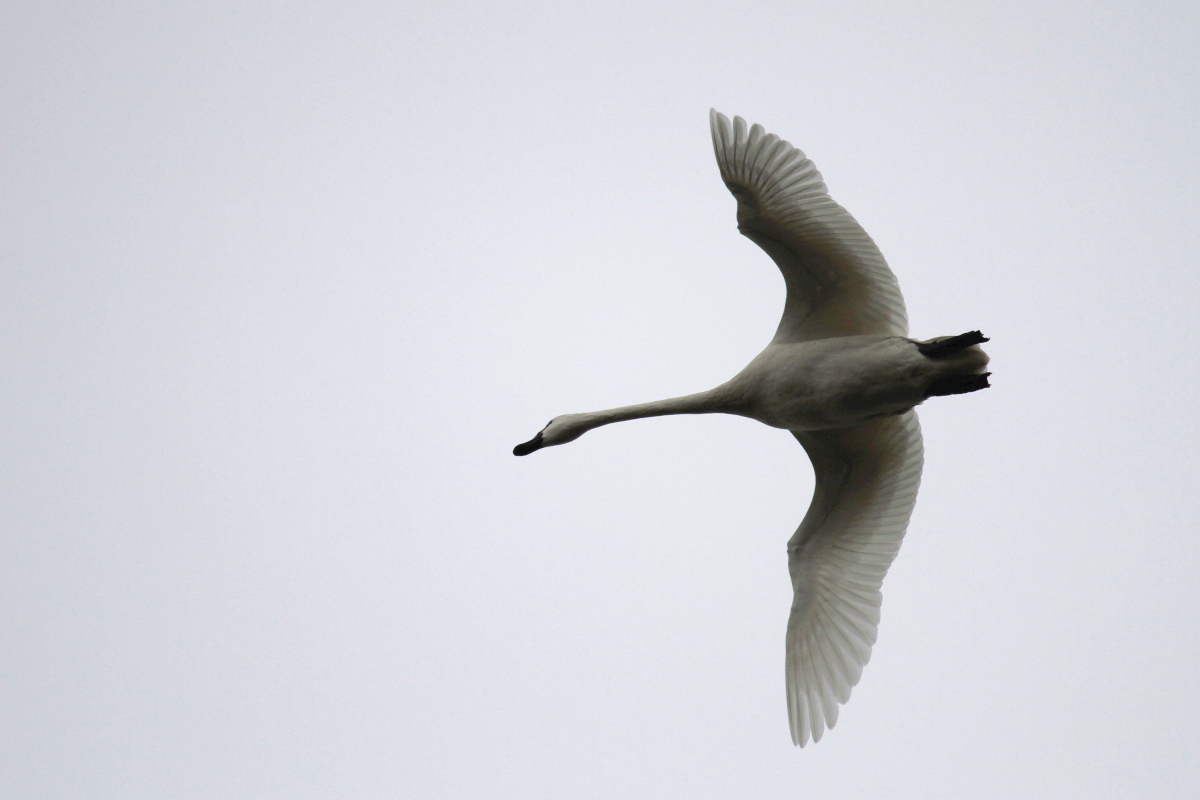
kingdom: Animalia
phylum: Chordata
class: Aves
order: Anseriformes
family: Anatidae
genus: Cygnus
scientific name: Cygnus columbianus
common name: Tundra swan
